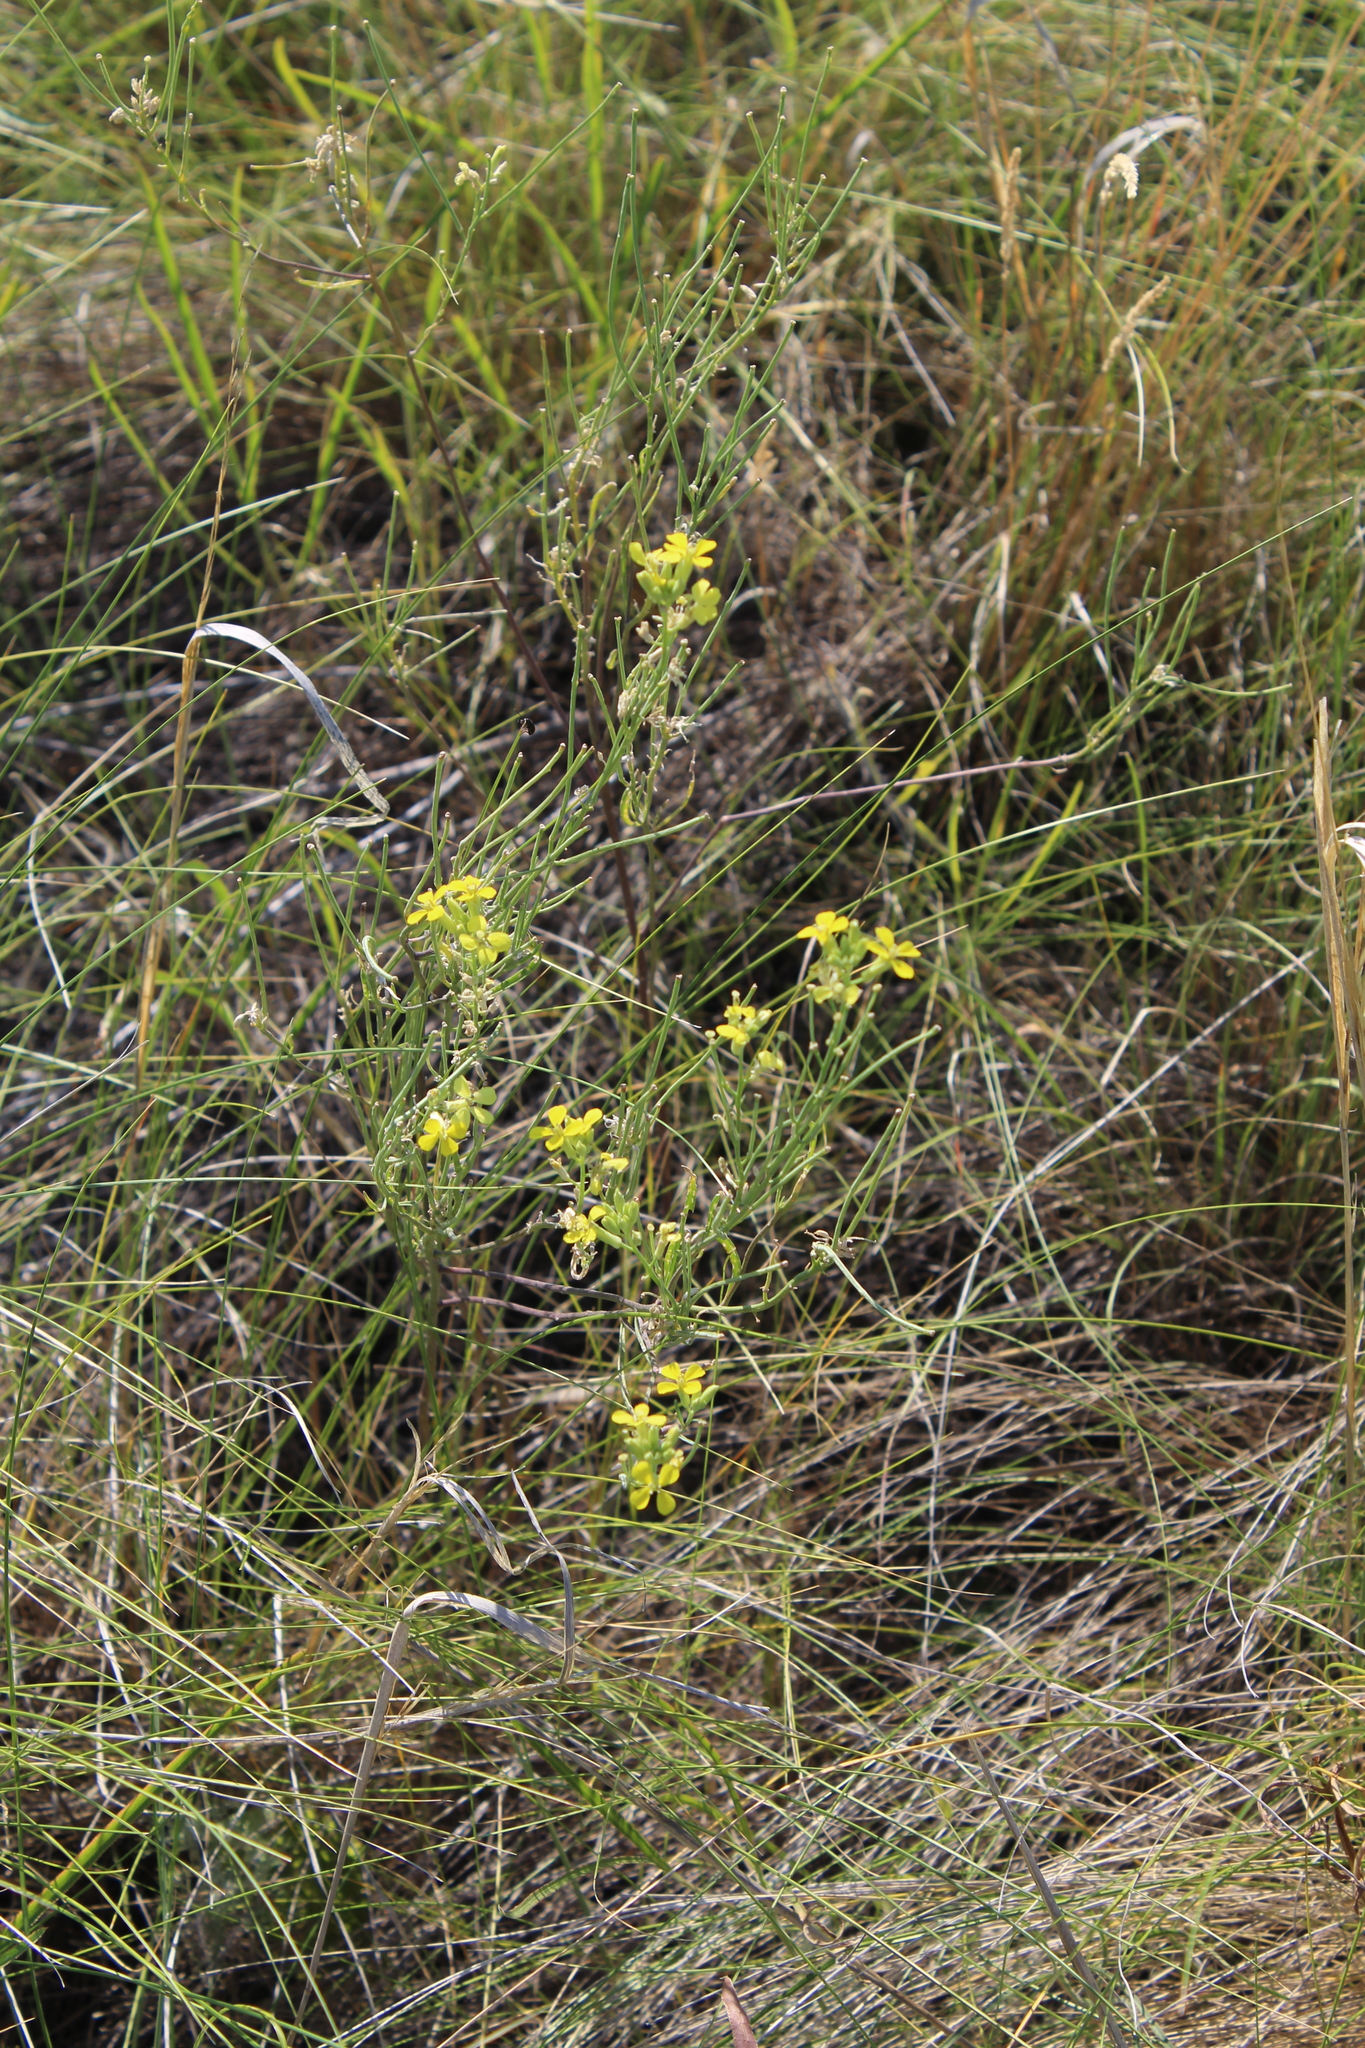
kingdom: Plantae
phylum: Tracheophyta
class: Magnoliopsida
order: Brassicales
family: Brassicaceae
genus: Erysimum
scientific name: Erysimum diffusum
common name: Diffuse wallflower
